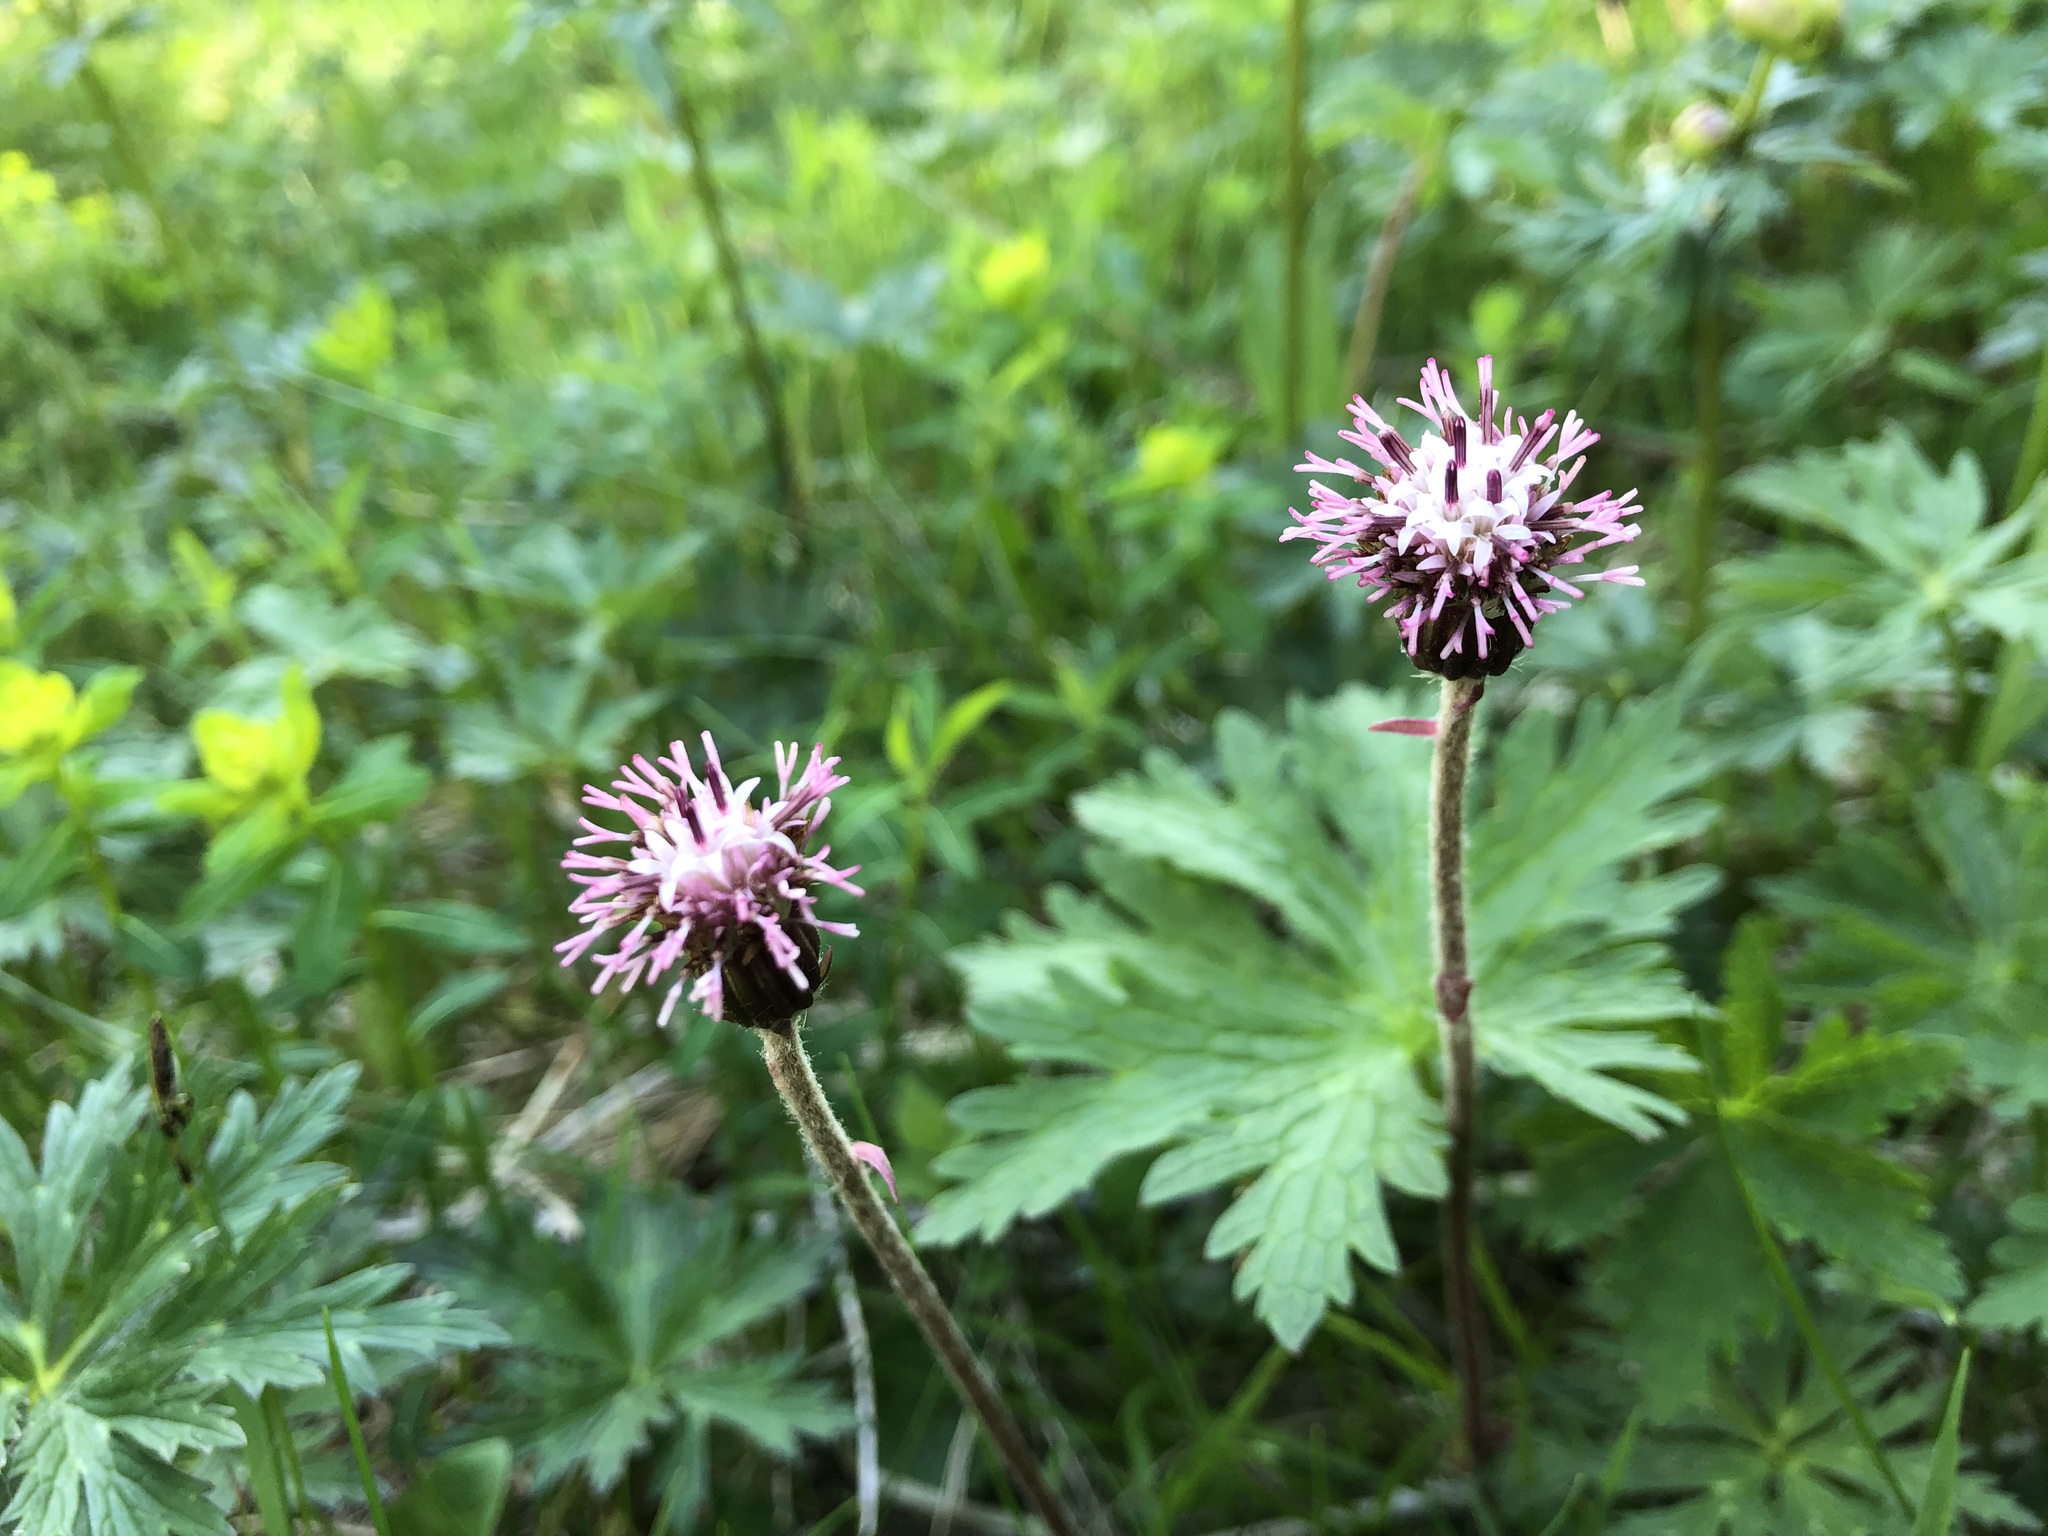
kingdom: Plantae
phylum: Tracheophyta
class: Magnoliopsida
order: Asterales
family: Asteraceae
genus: Homogyne
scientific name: Homogyne alpina
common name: Purple colt's-foot
